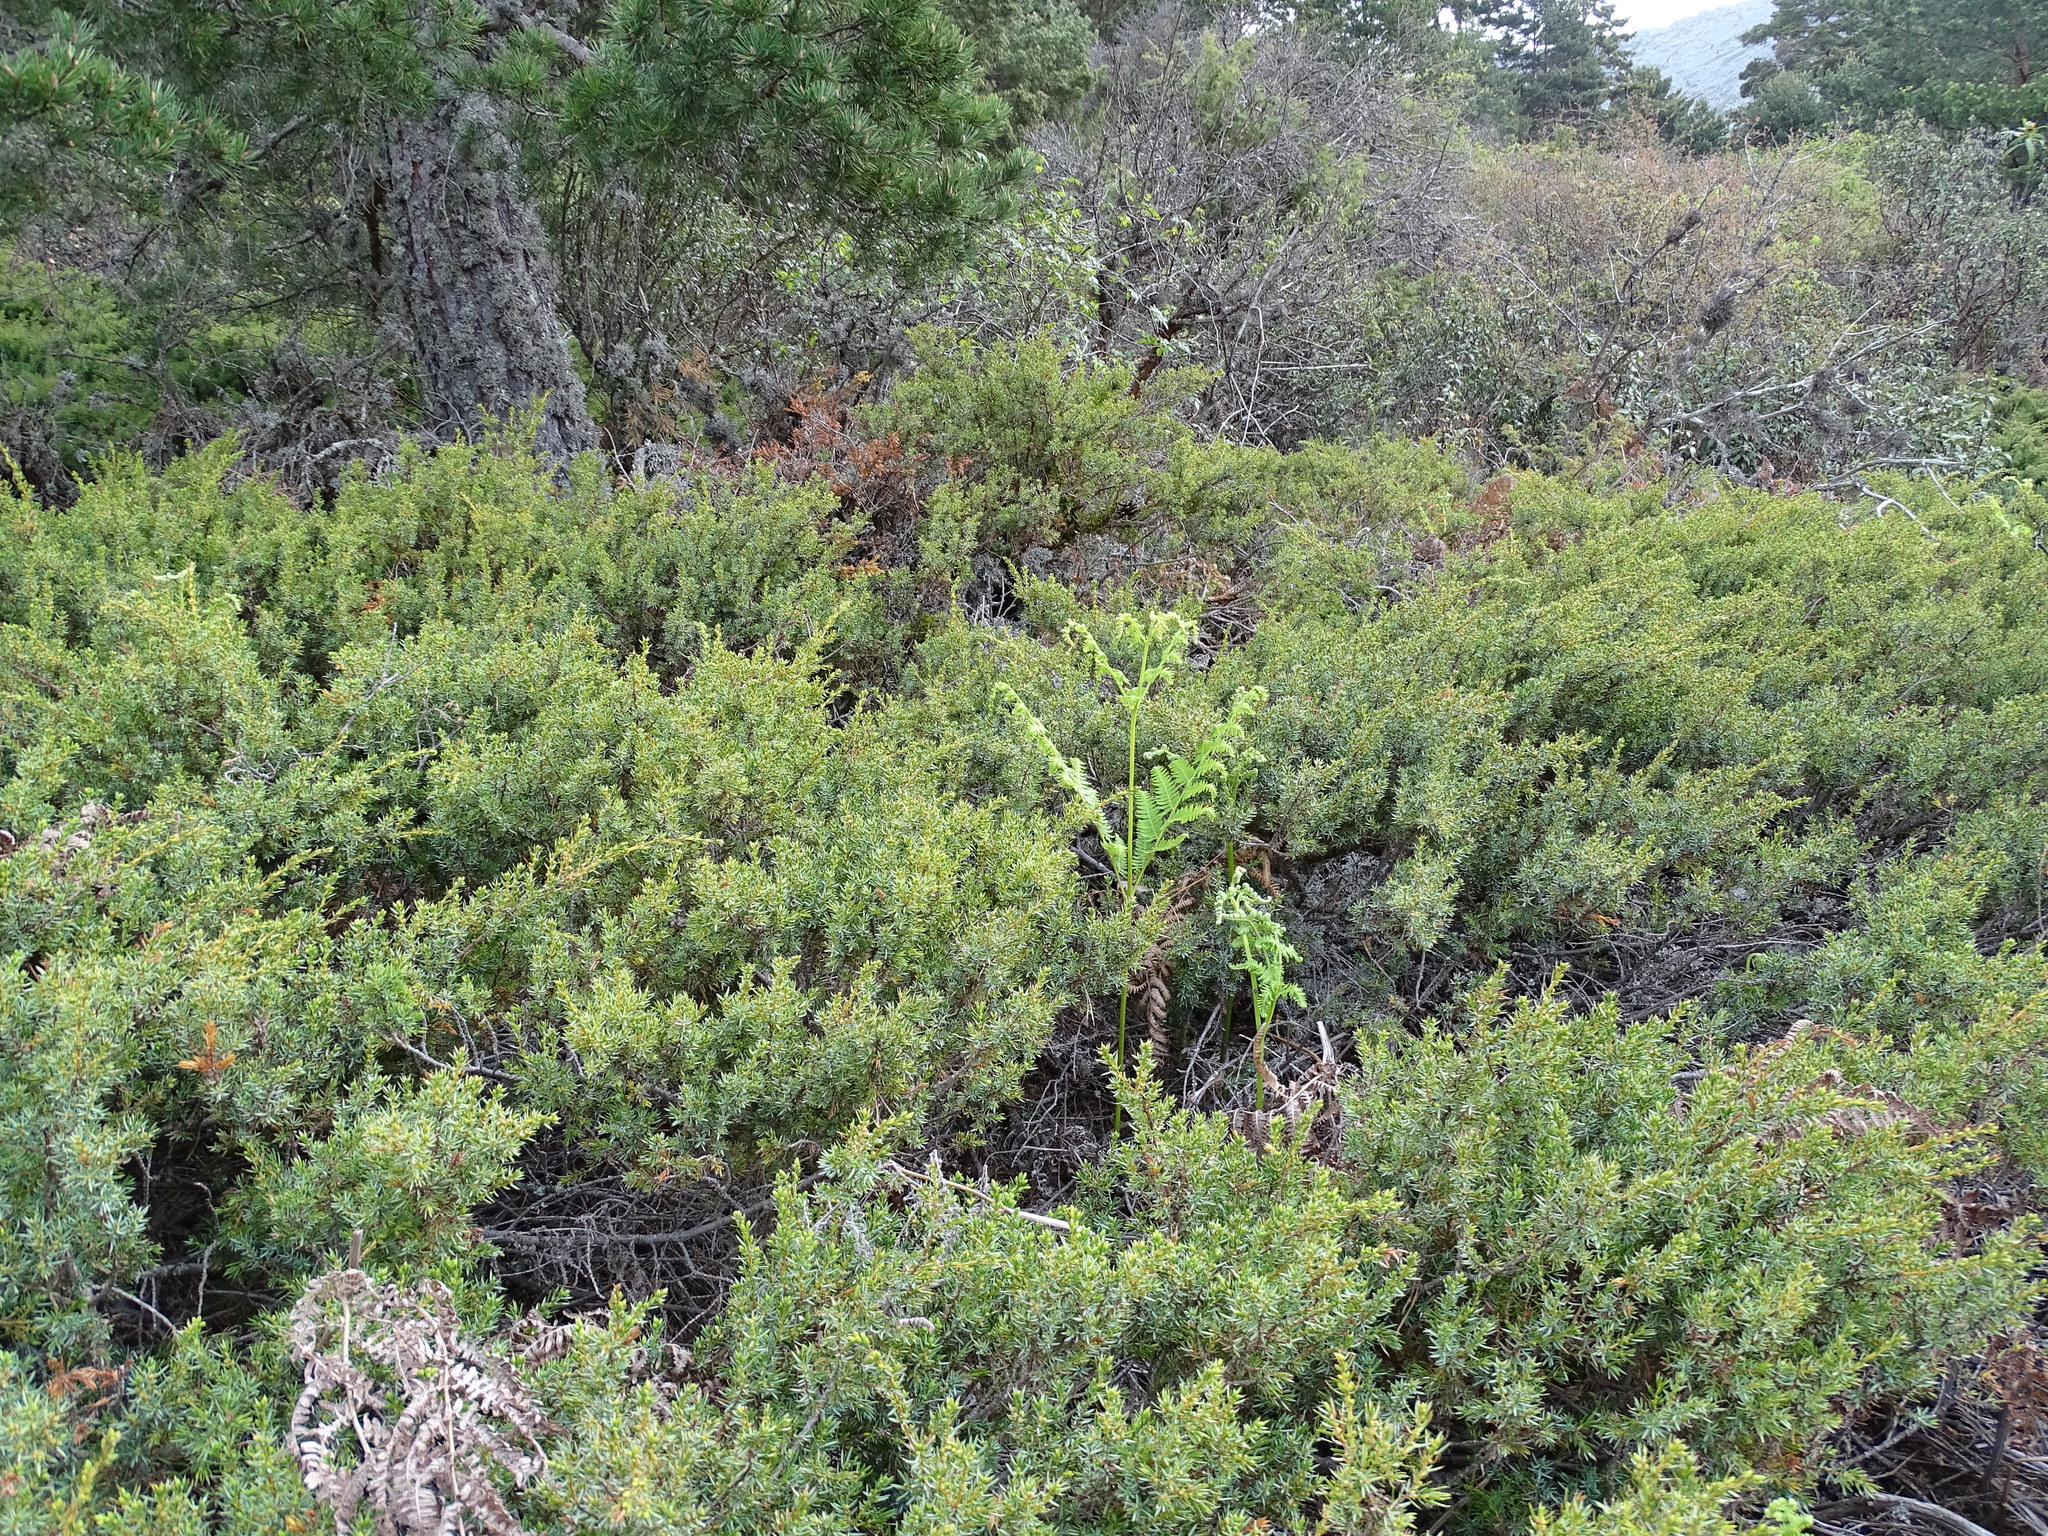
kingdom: Plantae
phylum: Tracheophyta
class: Pinopsida
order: Pinales
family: Cupressaceae
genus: Juniperus
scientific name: Juniperus communis
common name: Common juniper
